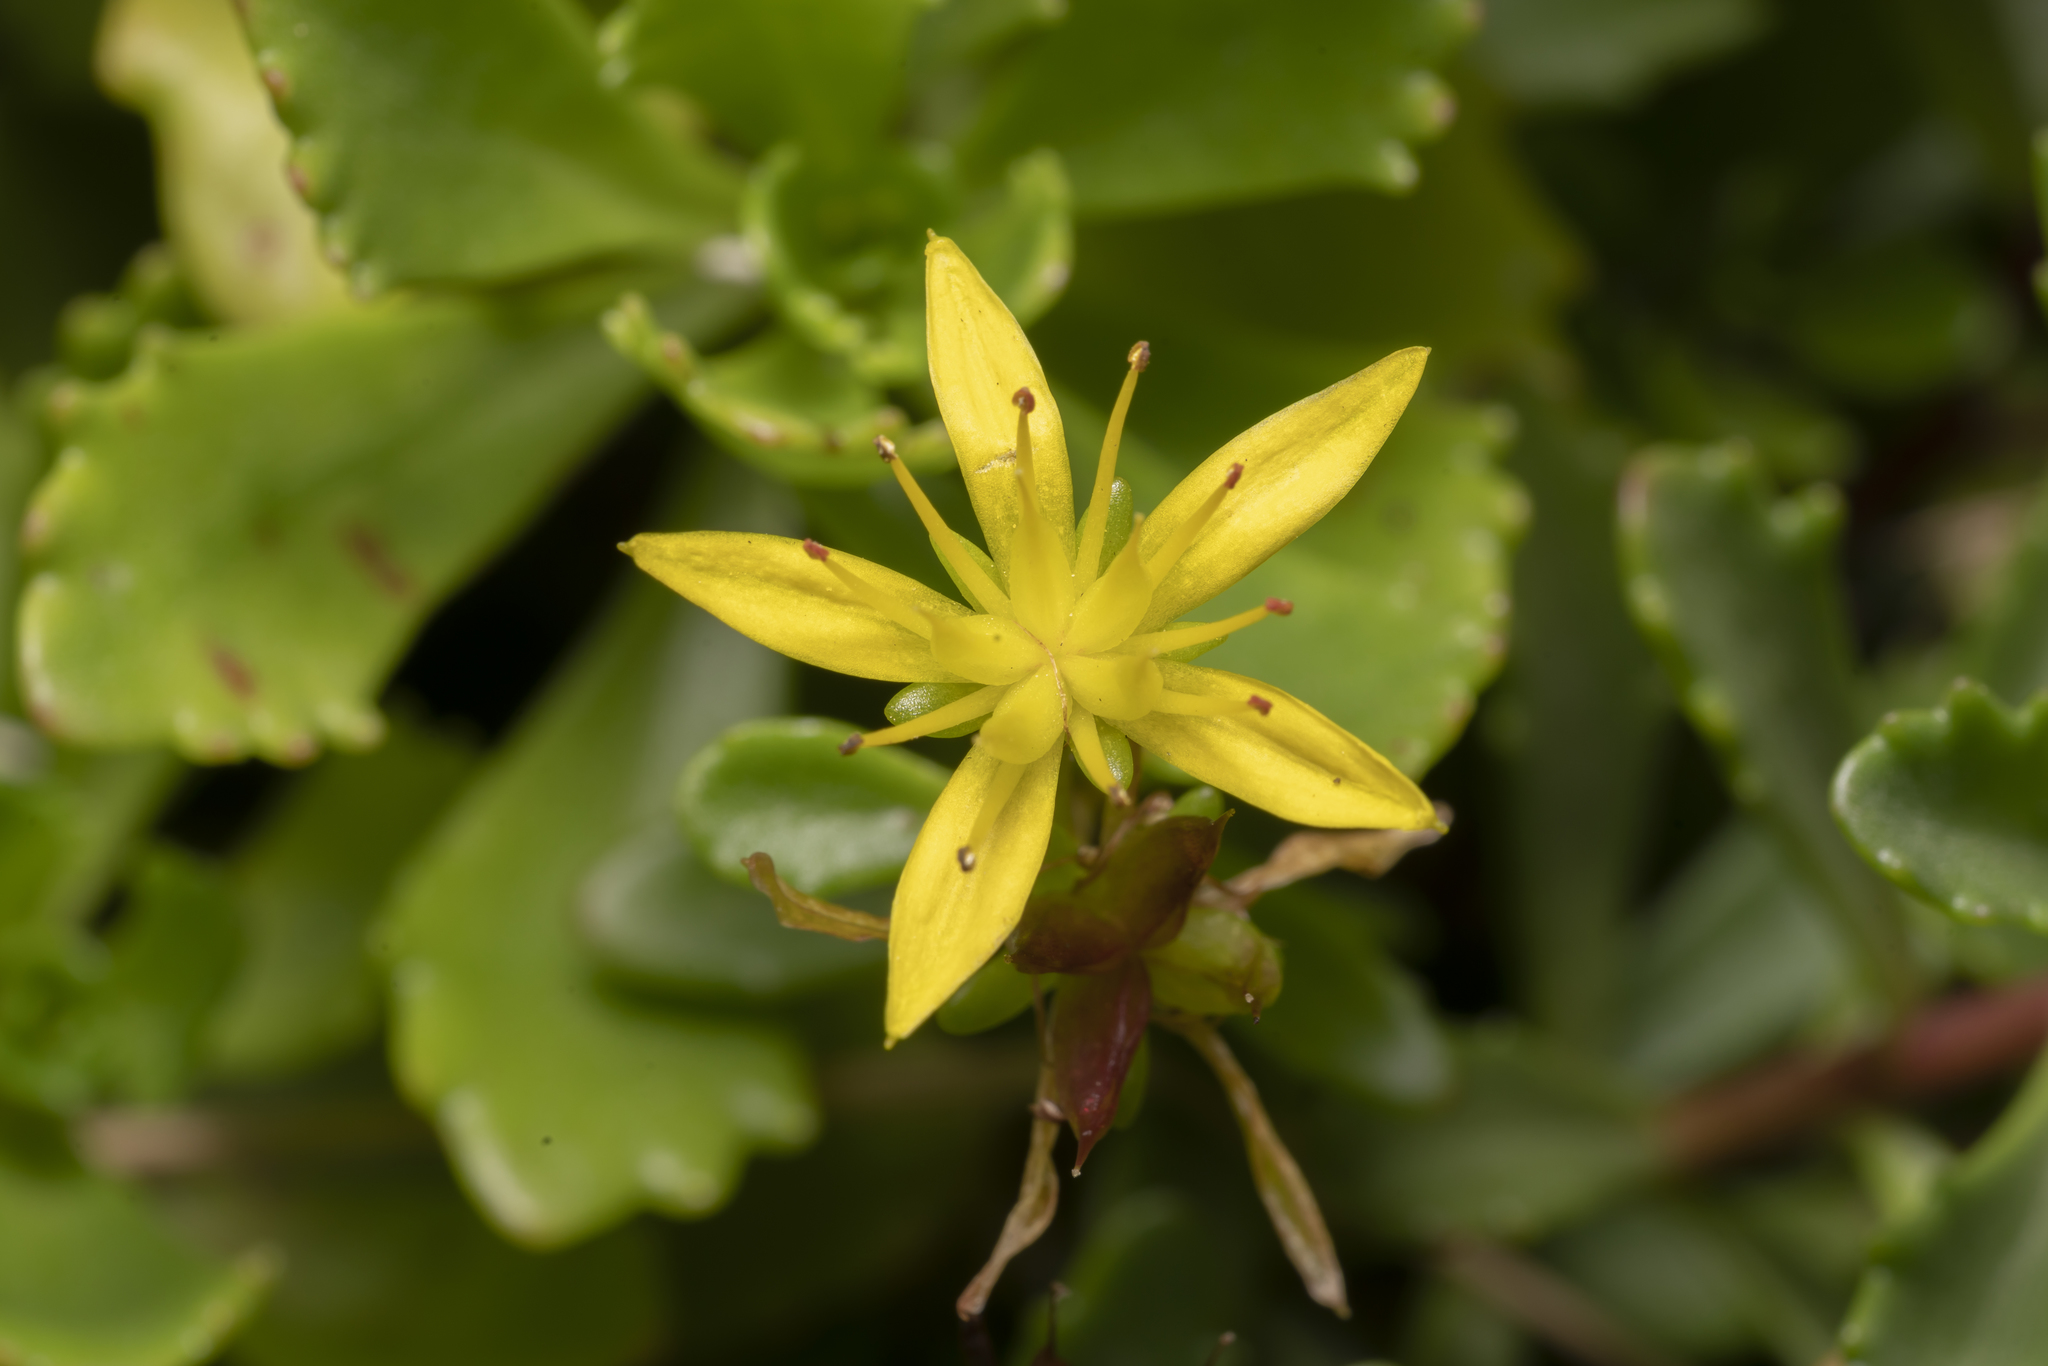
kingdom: Plantae
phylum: Tracheophyta
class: Magnoliopsida
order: Saxifragales
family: Crassulaceae
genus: Phedimus
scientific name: Phedimus hybridus
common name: Hybrid stonecrop
